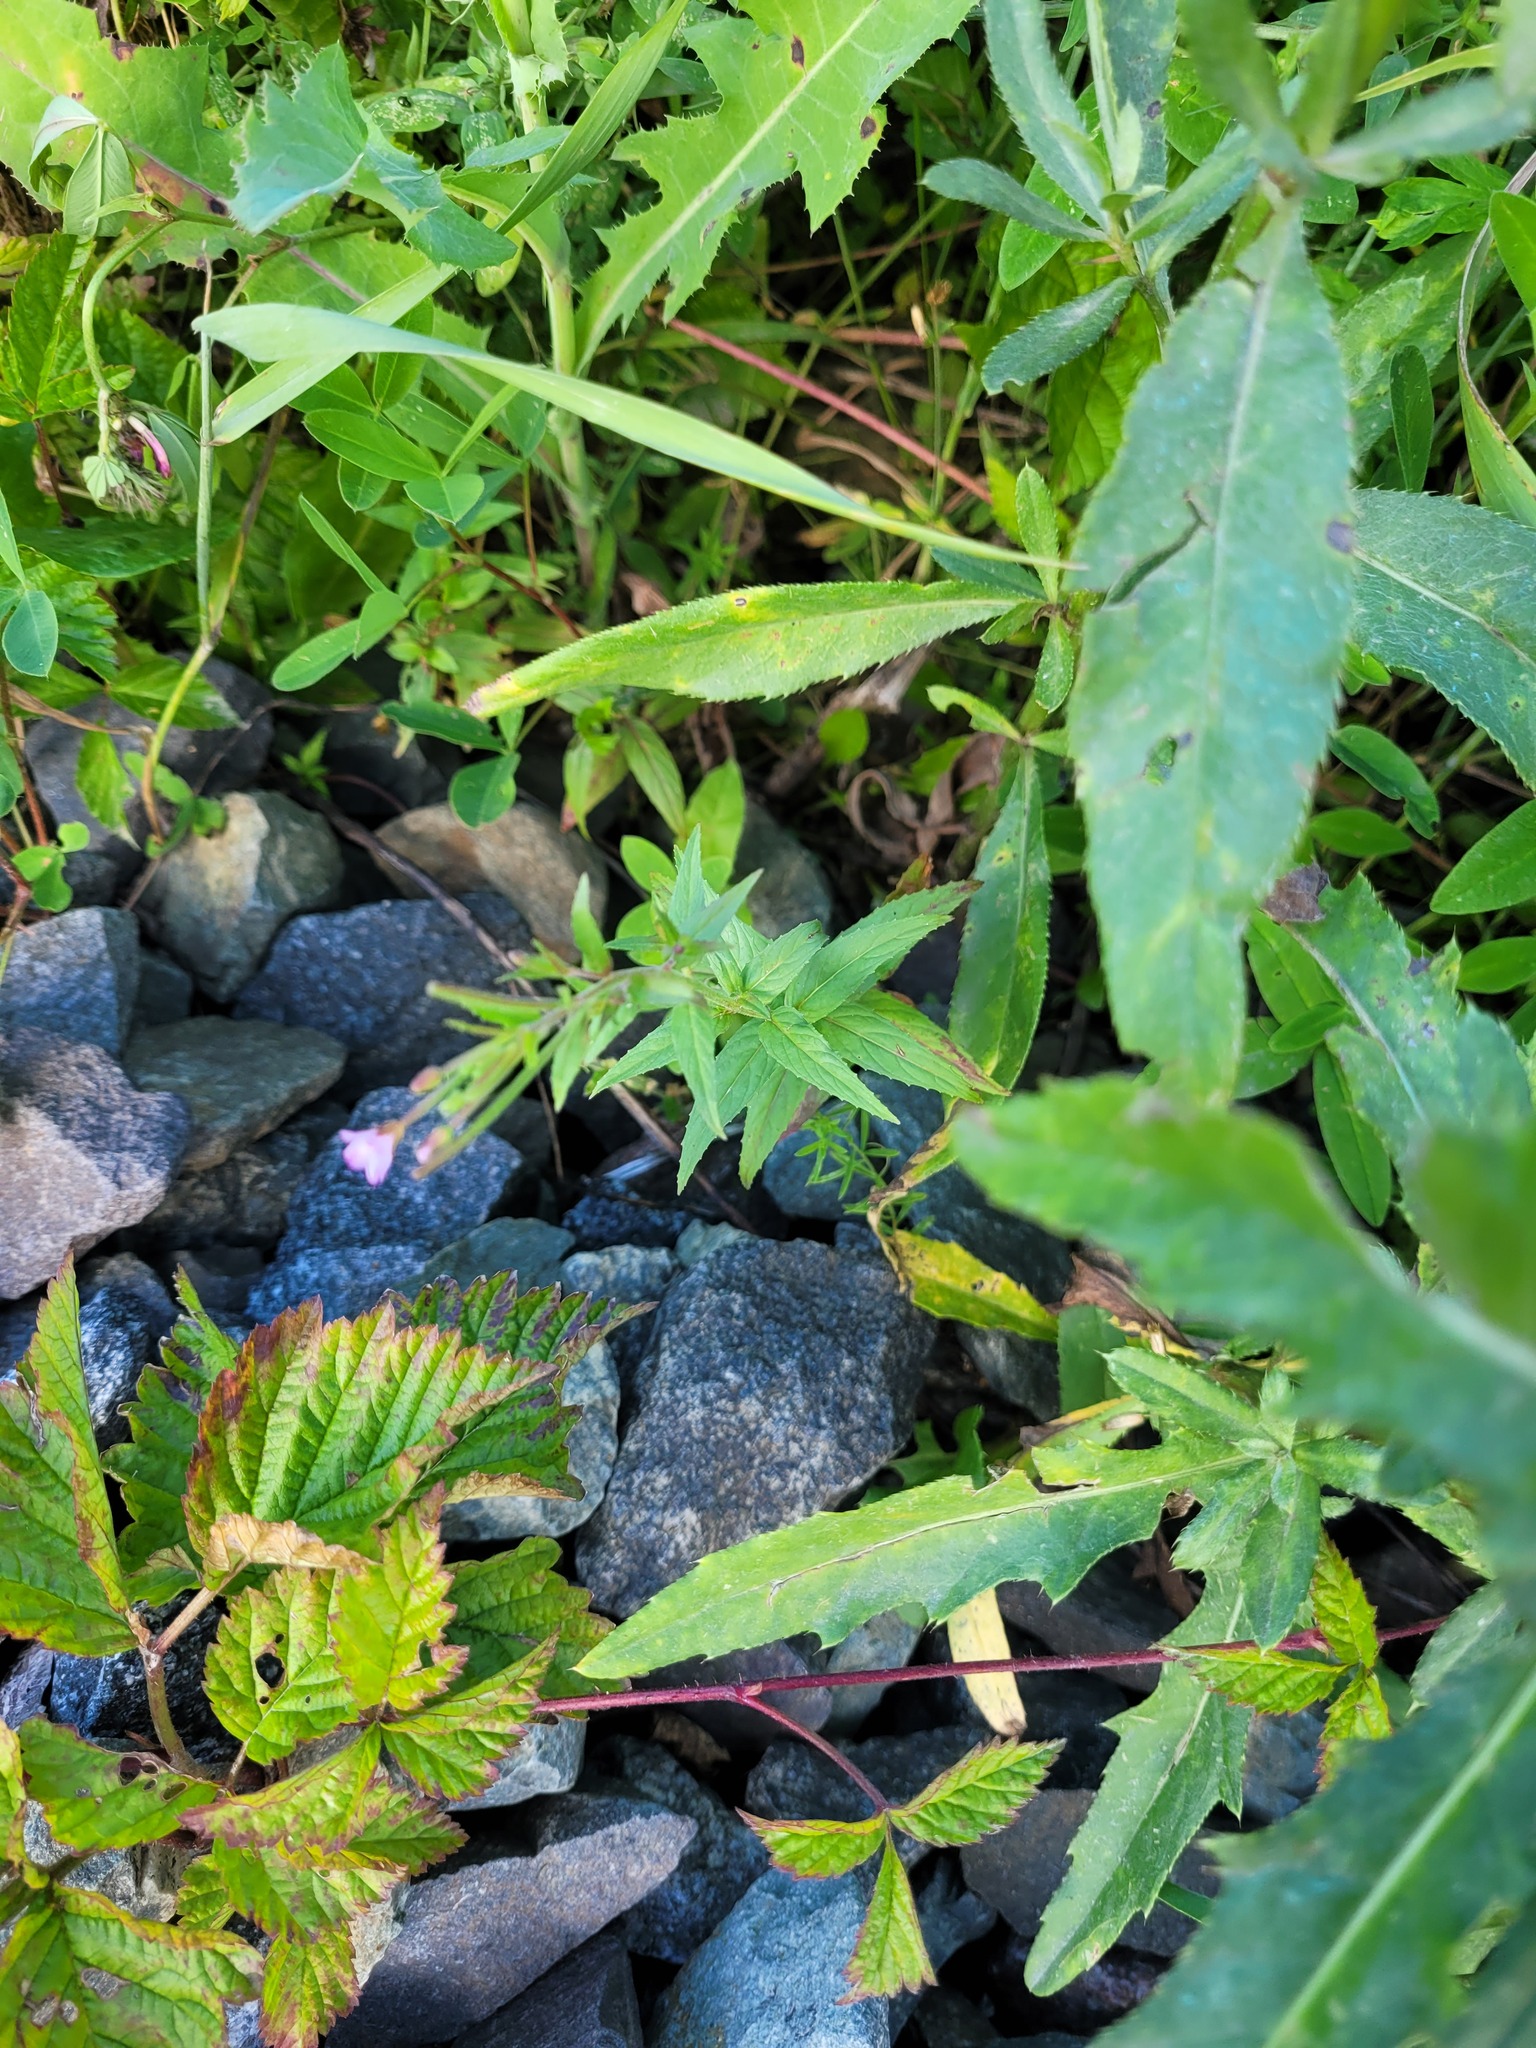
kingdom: Plantae
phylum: Tracheophyta
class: Magnoliopsida
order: Myrtales
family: Onagraceae
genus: Epilobium
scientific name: Epilobium ciliatum
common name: American willowherb
